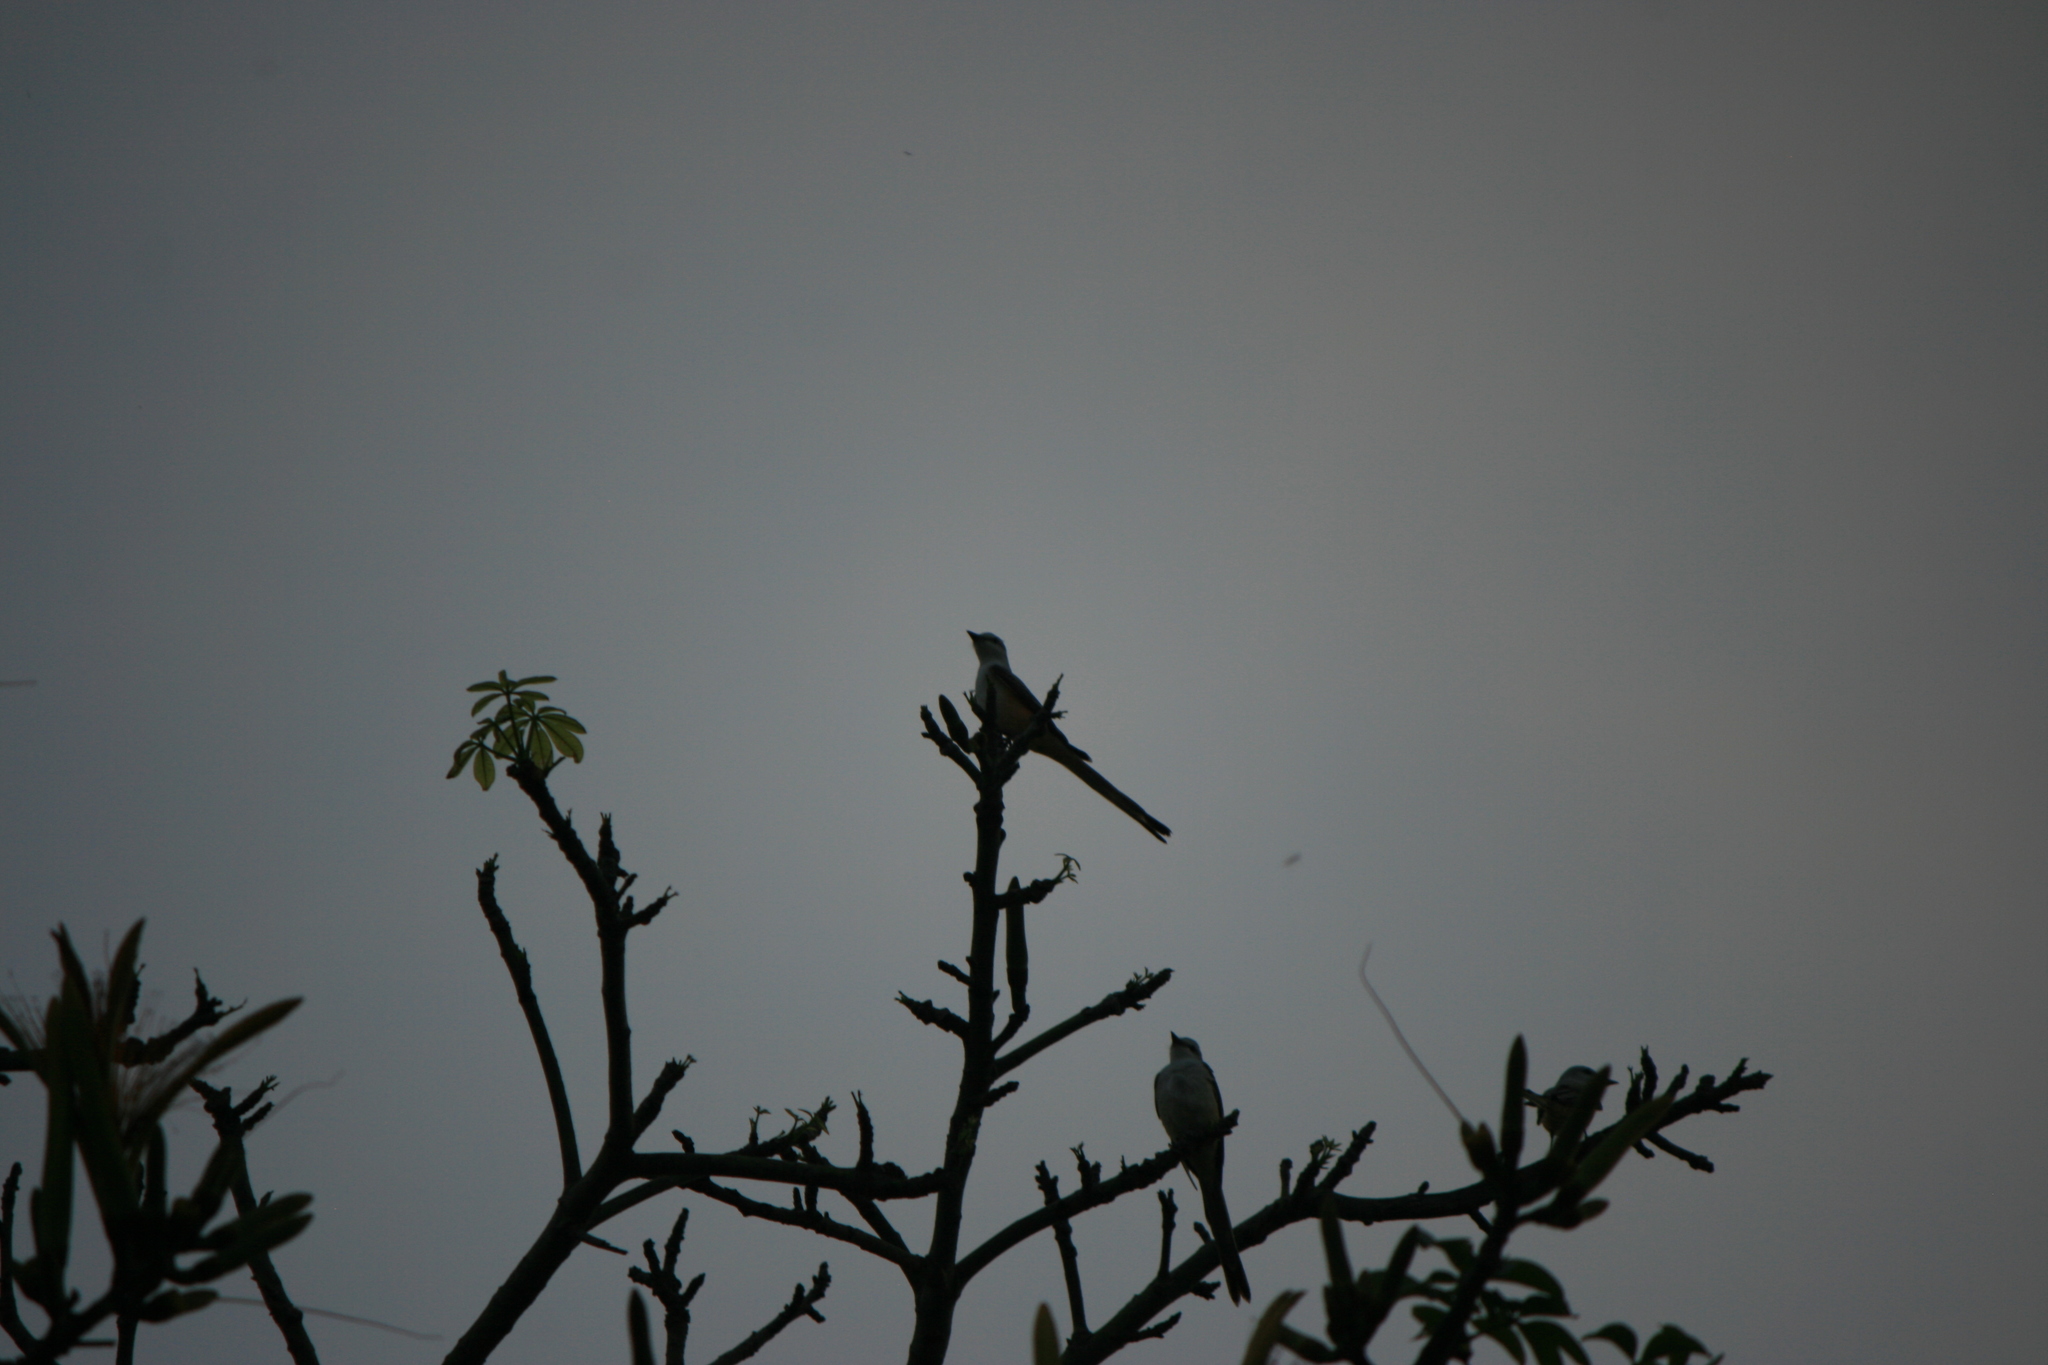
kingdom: Animalia
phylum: Chordata
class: Aves
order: Passeriformes
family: Tyrannidae
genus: Tyrannus
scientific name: Tyrannus forficatus
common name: Scissor-tailed flycatcher
